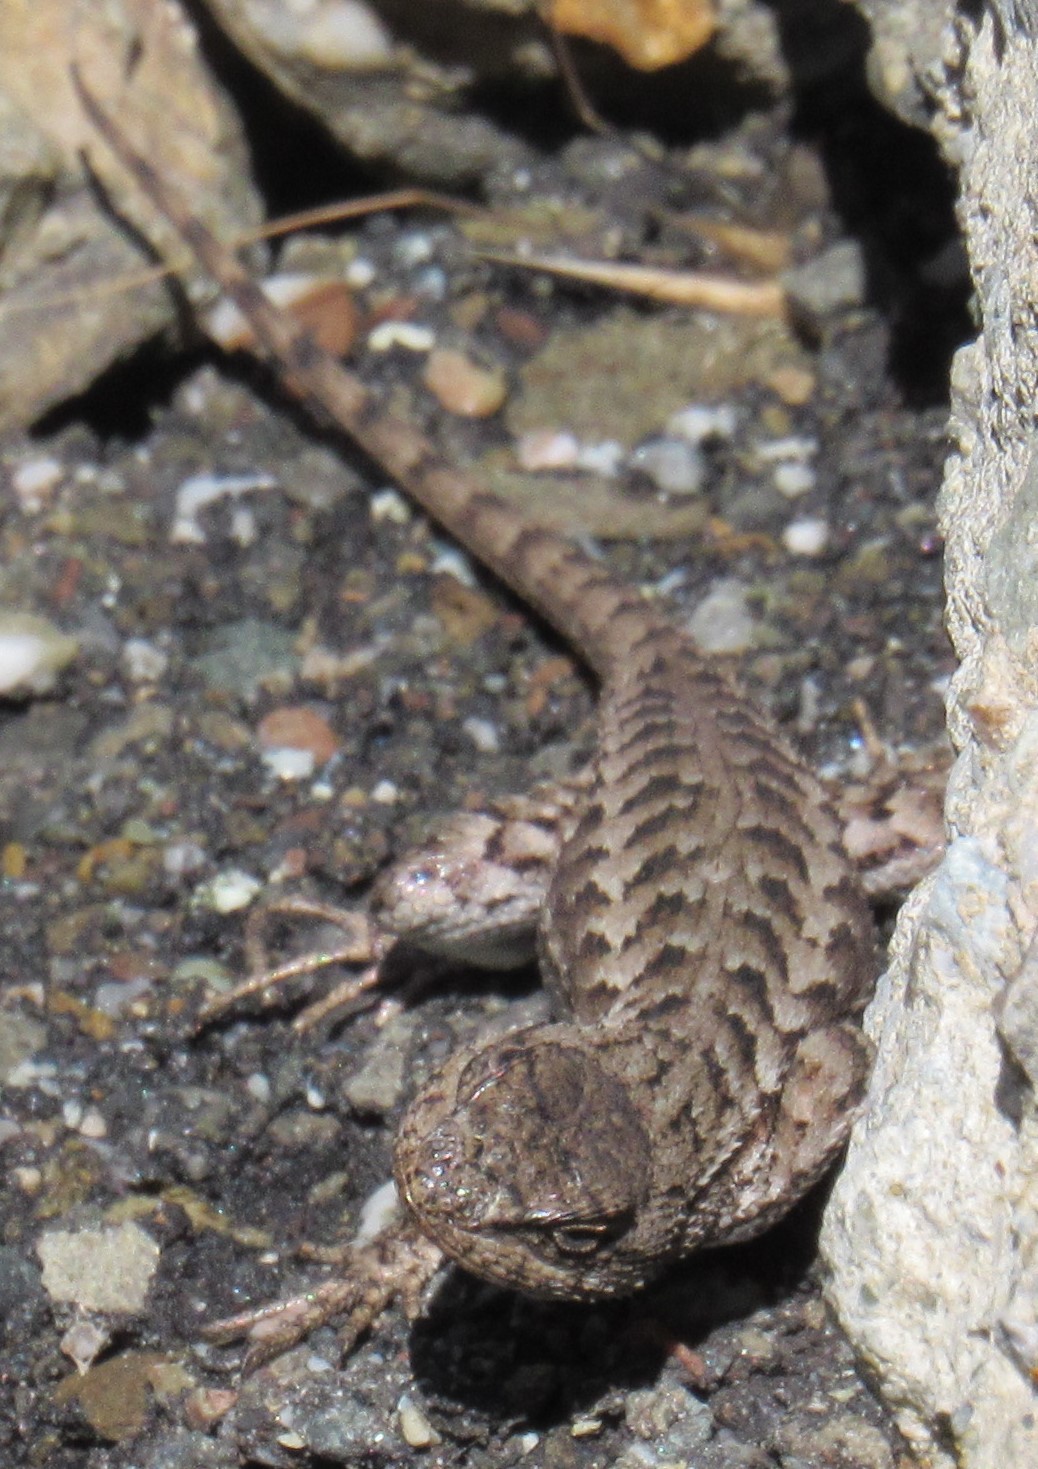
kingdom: Animalia
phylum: Chordata
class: Squamata
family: Phrynosomatidae
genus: Sceloporus
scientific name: Sceloporus occidentalis
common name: Western fence lizard
